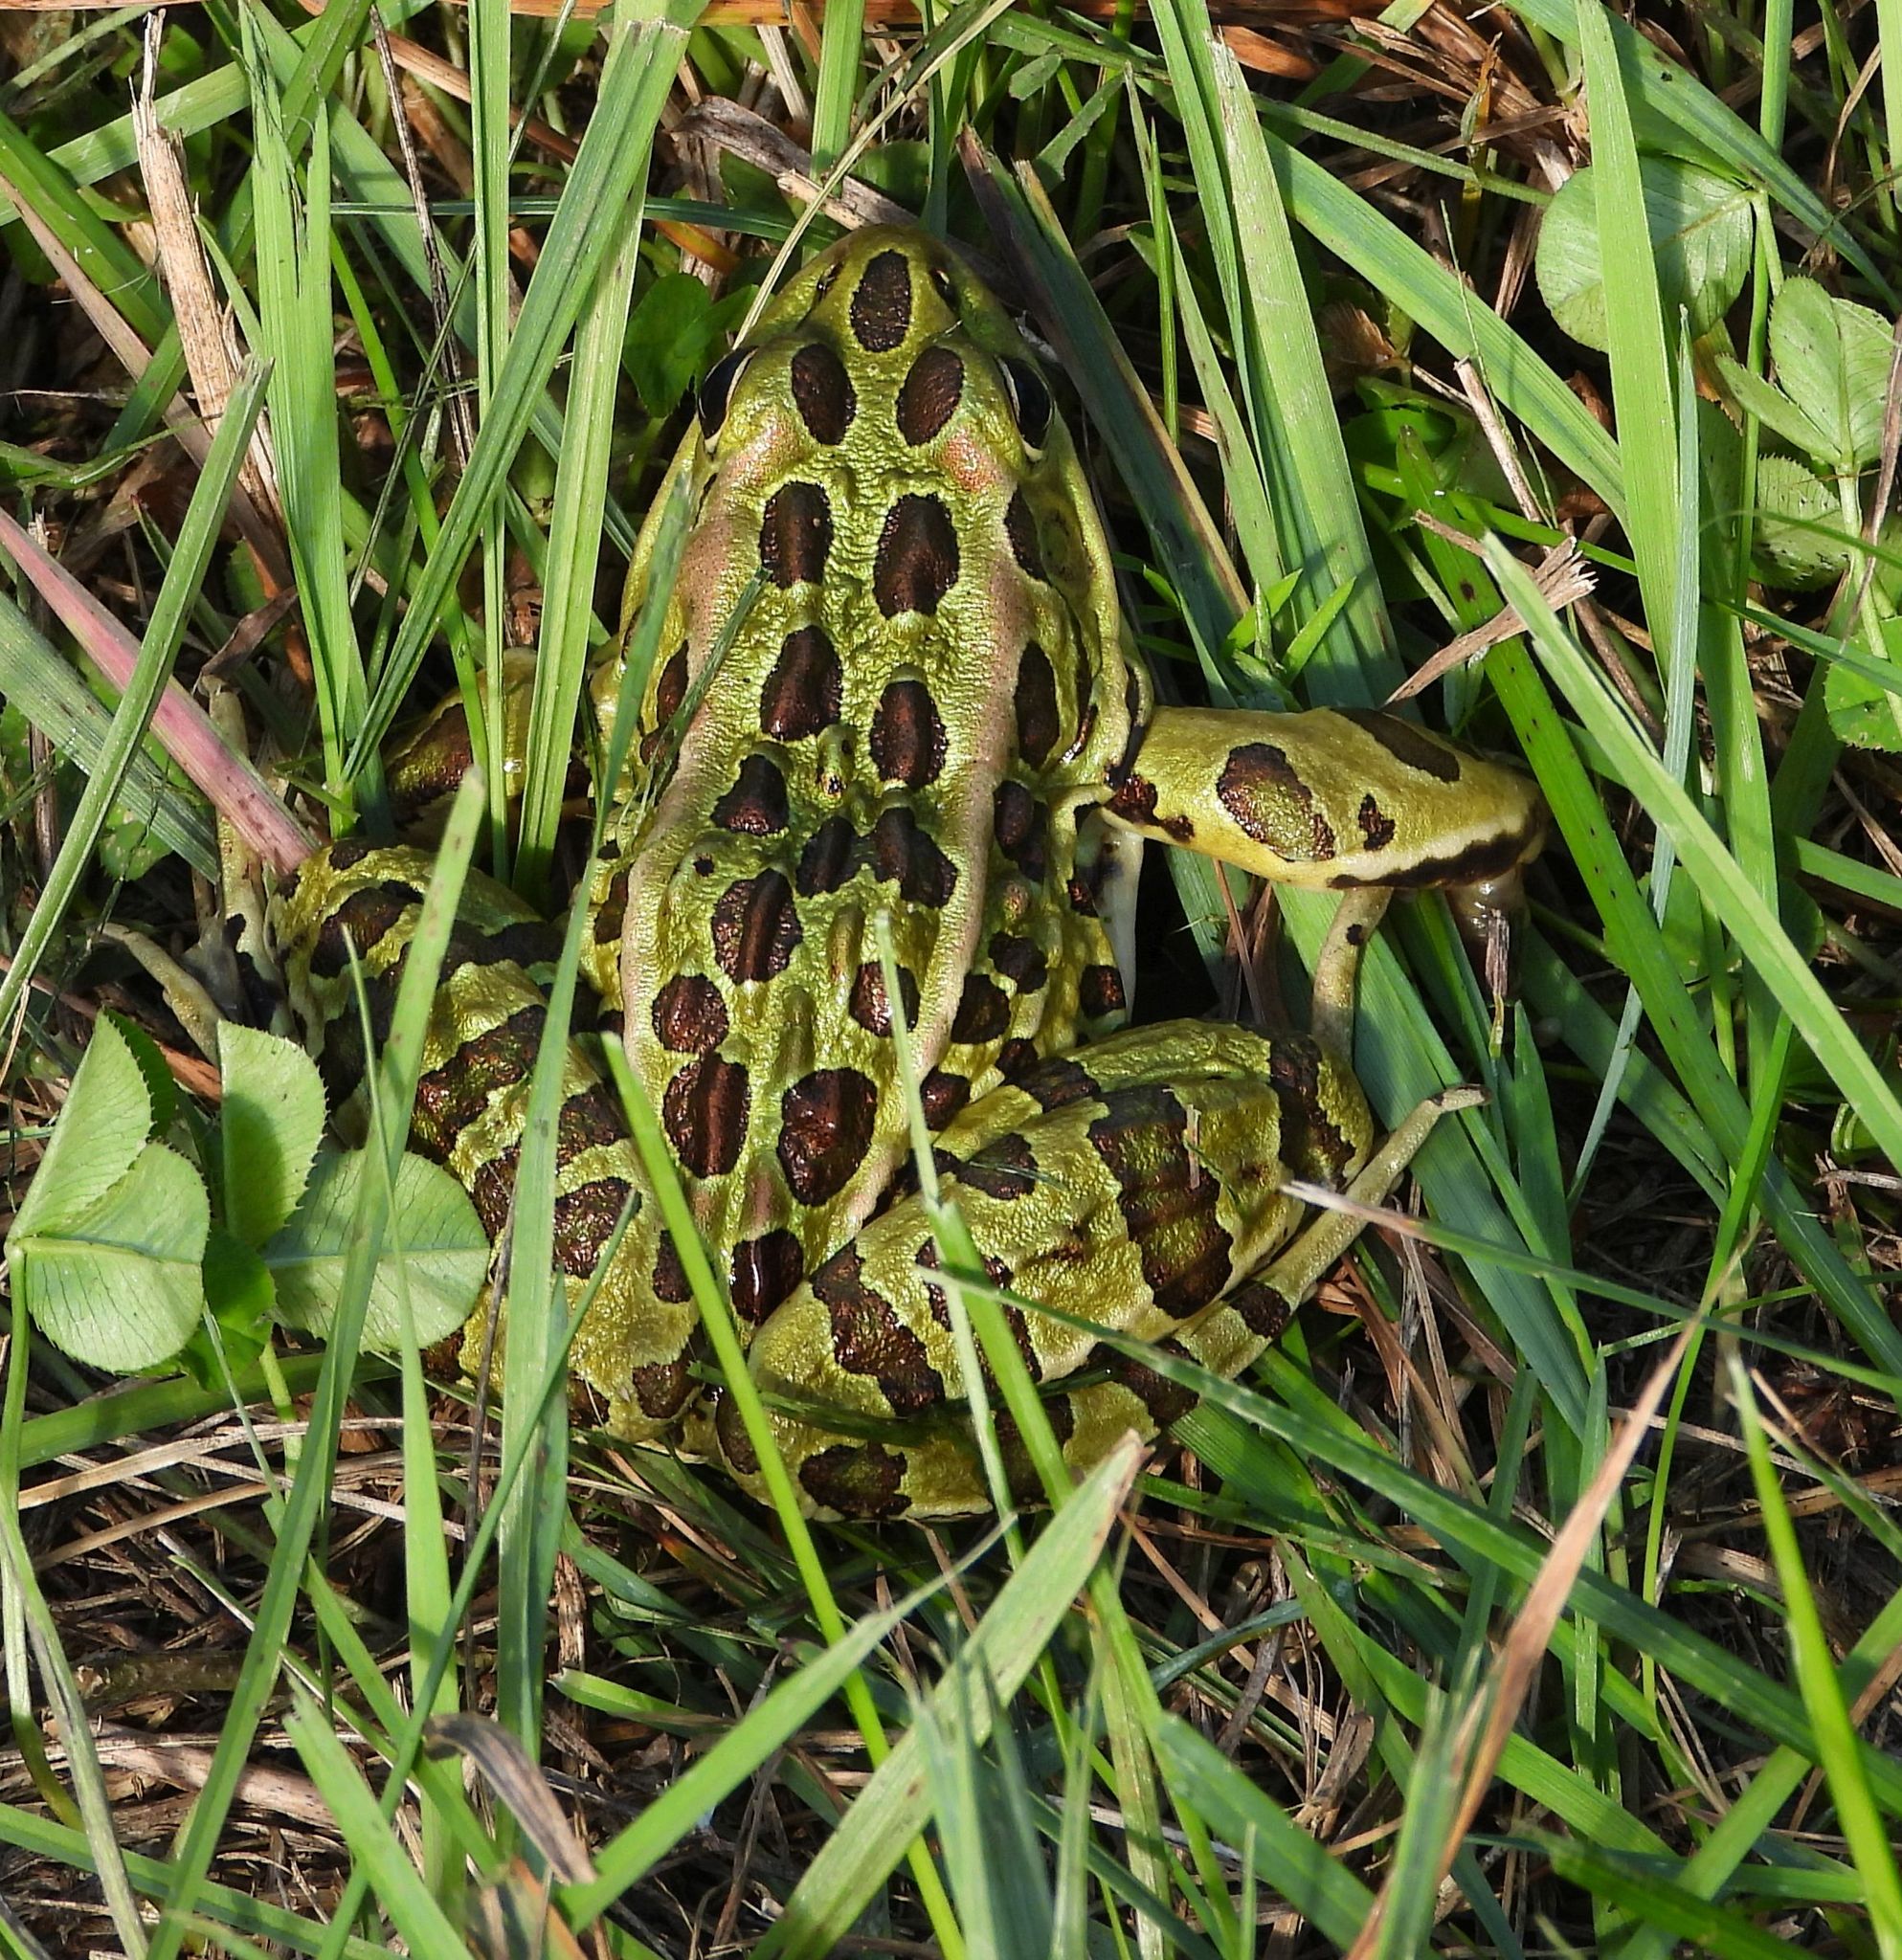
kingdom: Animalia
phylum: Chordata
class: Amphibia
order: Anura
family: Ranidae
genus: Lithobates
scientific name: Lithobates pipiens
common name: Northern leopard frog
